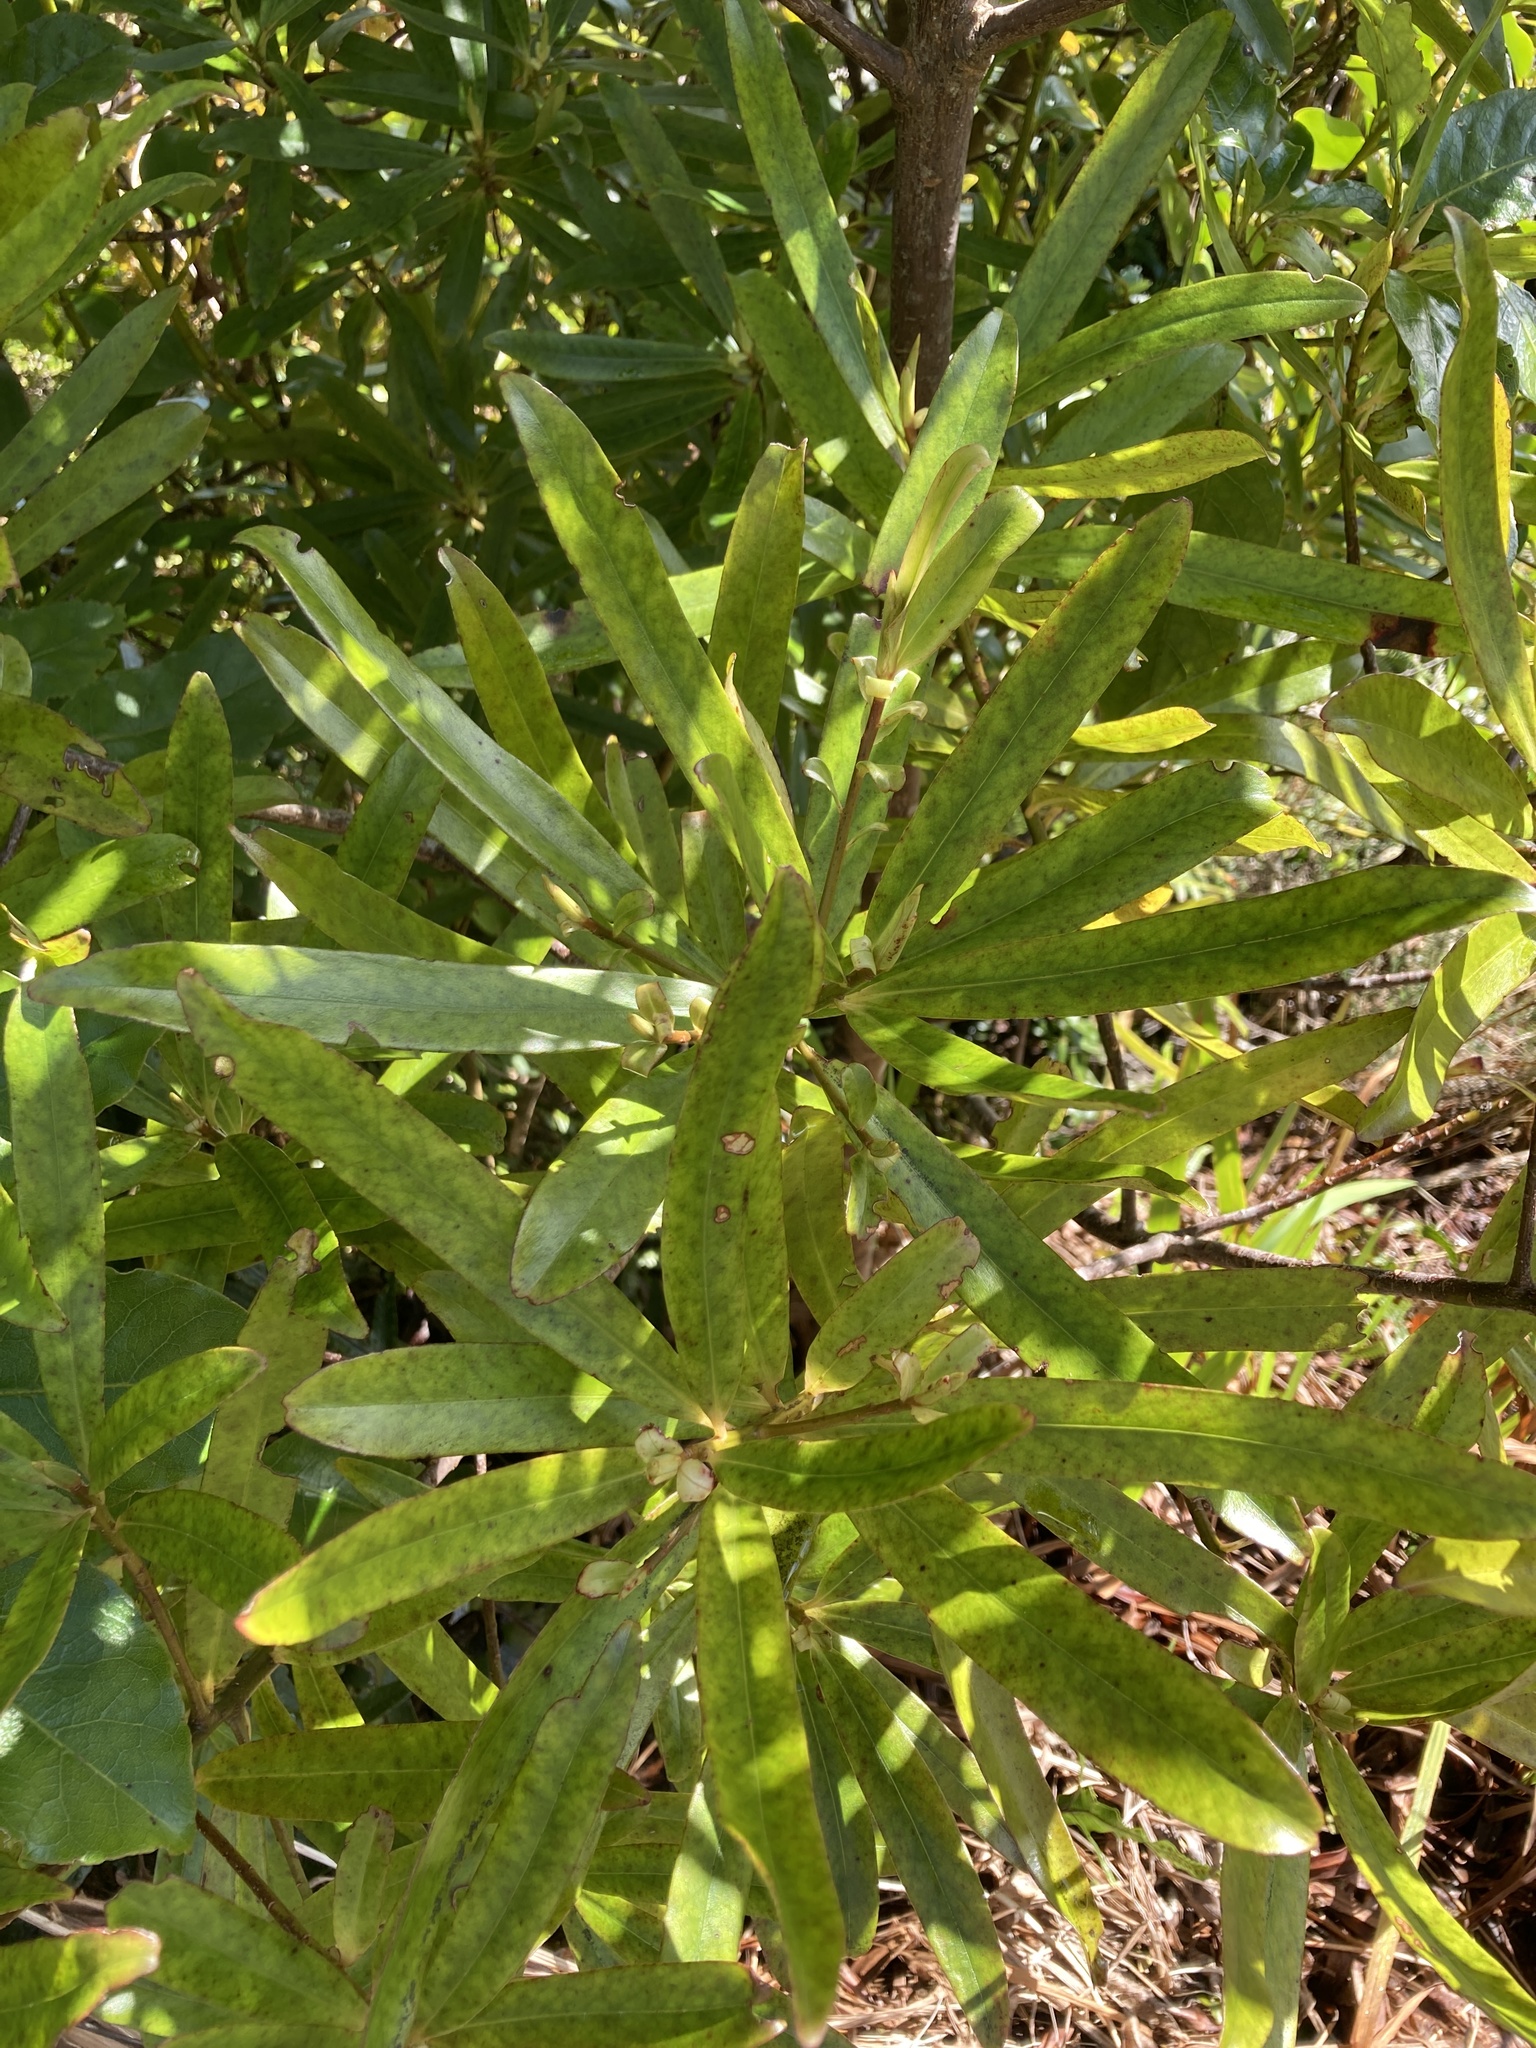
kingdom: Plantae
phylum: Tracheophyta
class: Magnoliopsida
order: Ericales
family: Primulaceae
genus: Myrsine
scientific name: Myrsine salicina
